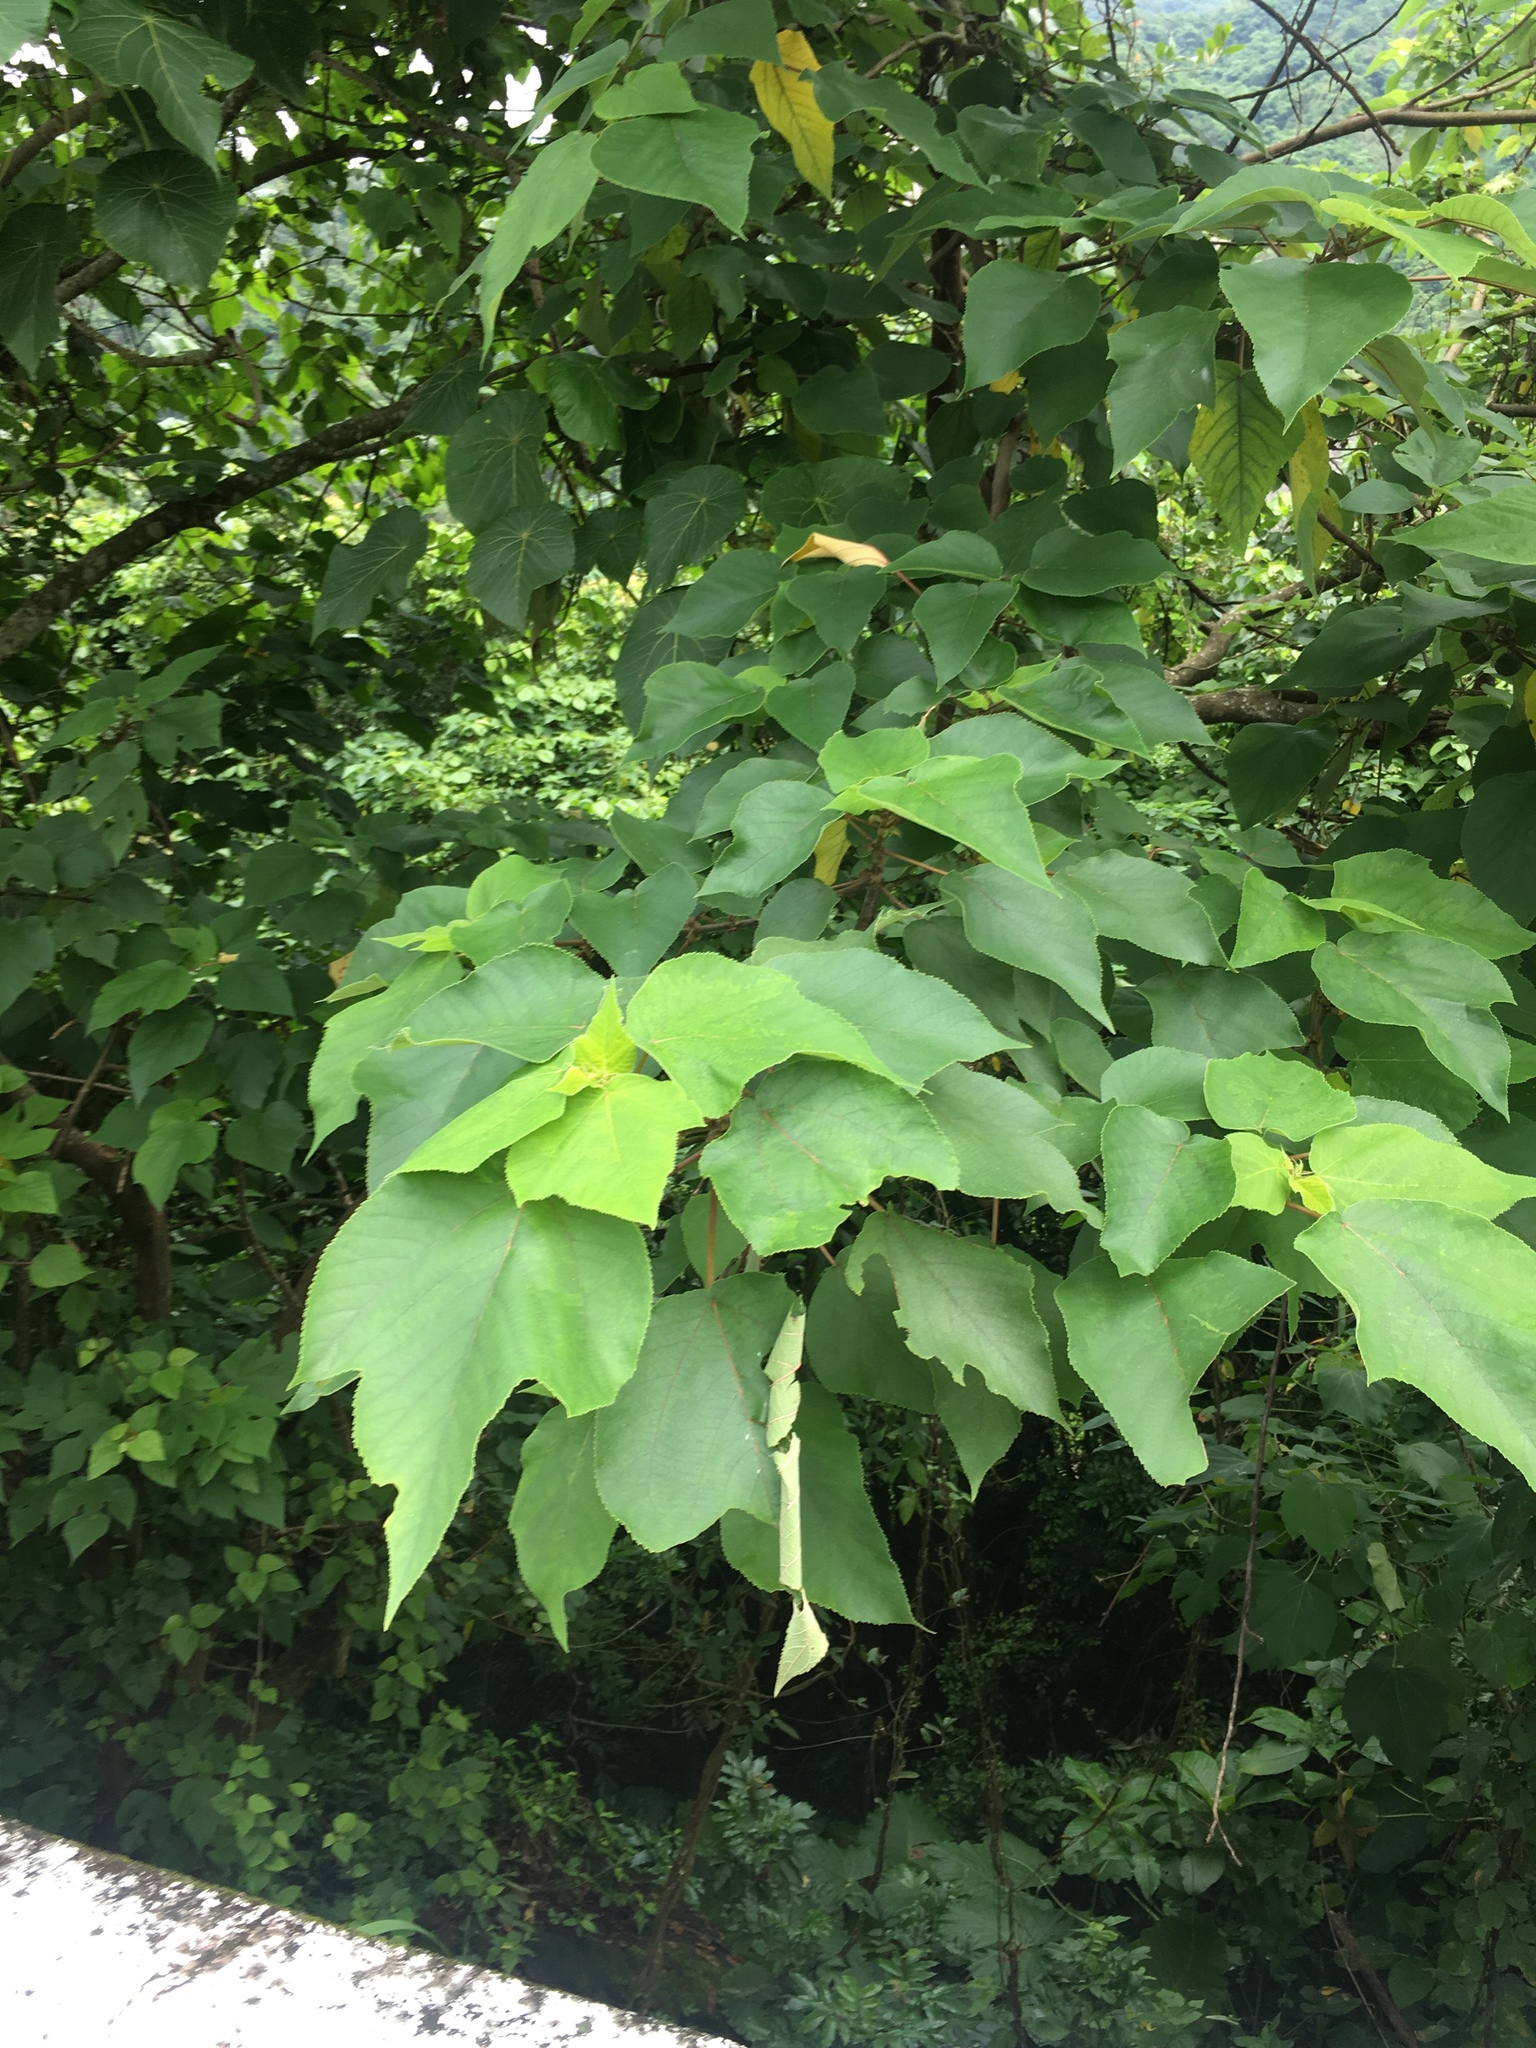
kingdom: Plantae
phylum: Tracheophyta
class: Magnoliopsida
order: Rosales
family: Moraceae
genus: Broussonetia
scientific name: Broussonetia papyrifera
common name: Paper mulberry
